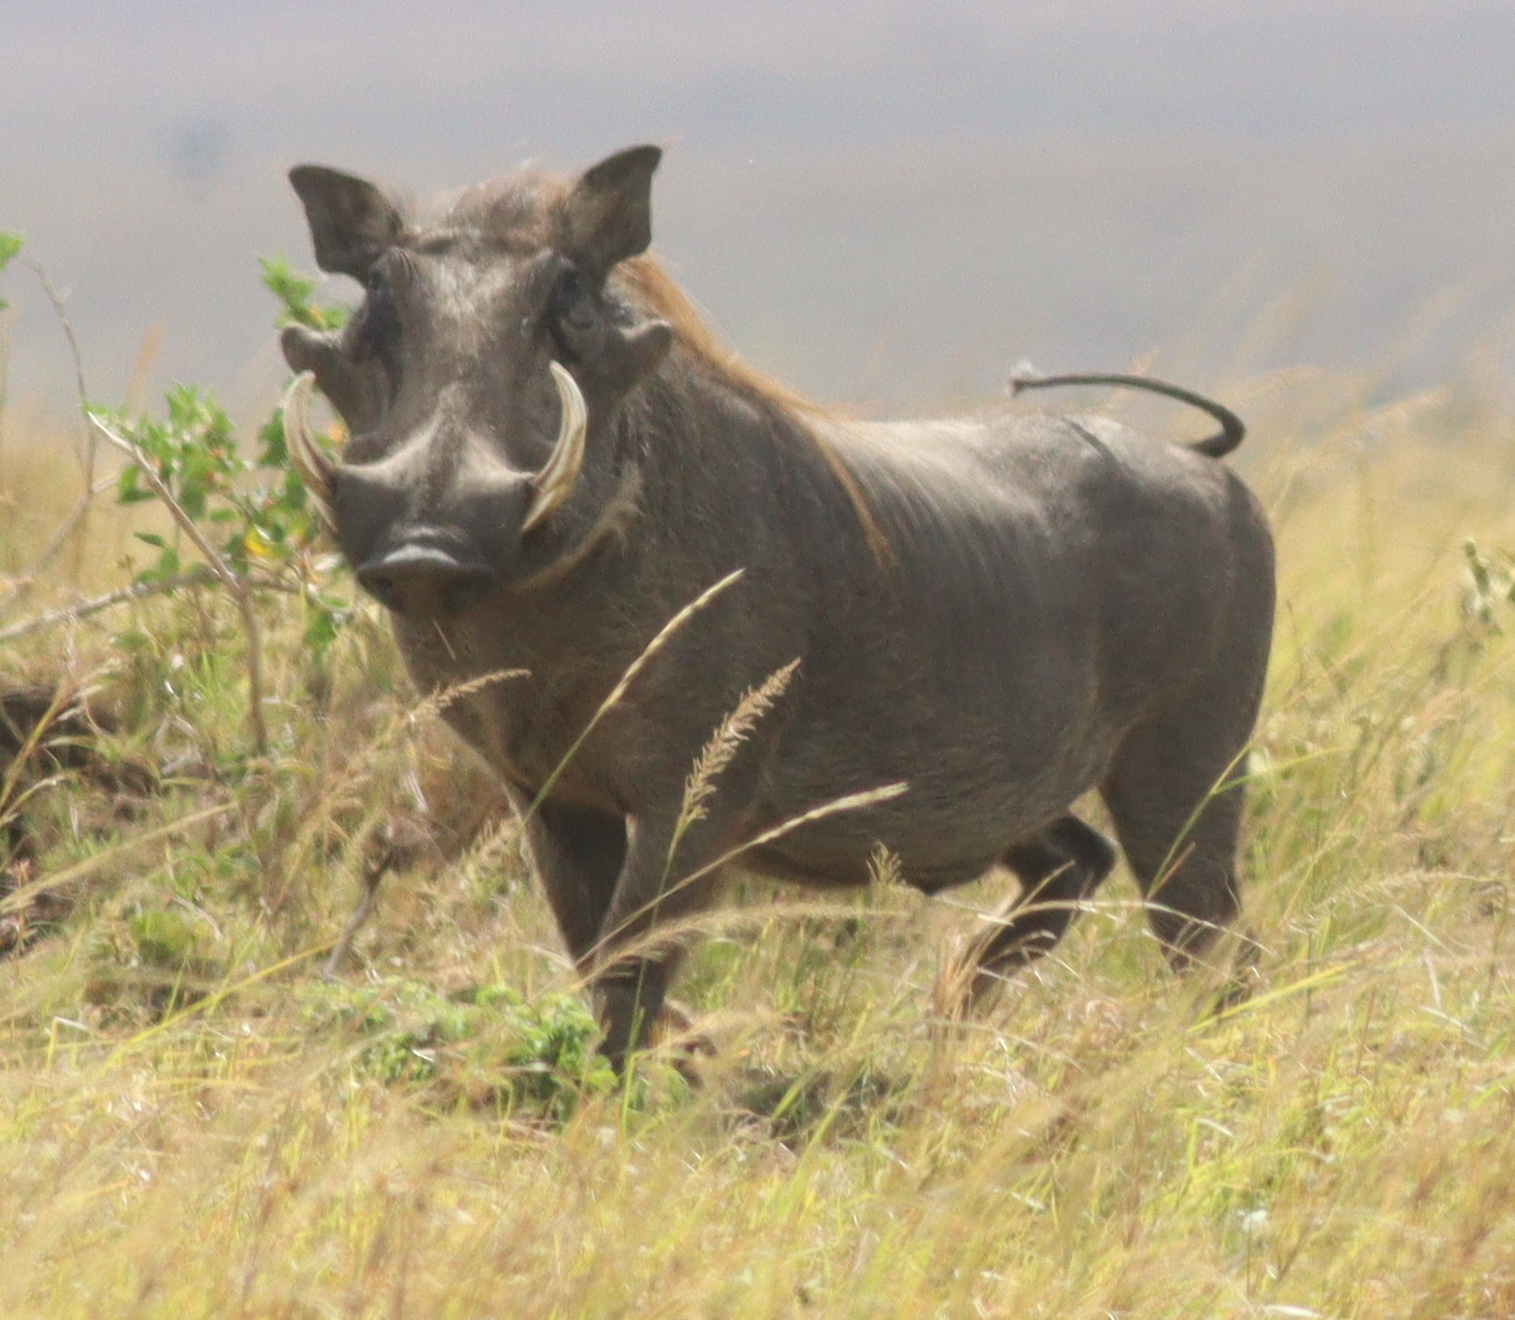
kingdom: Animalia
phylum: Chordata
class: Mammalia
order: Artiodactyla
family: Suidae
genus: Phacochoerus
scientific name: Phacochoerus africanus
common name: Common warthog
